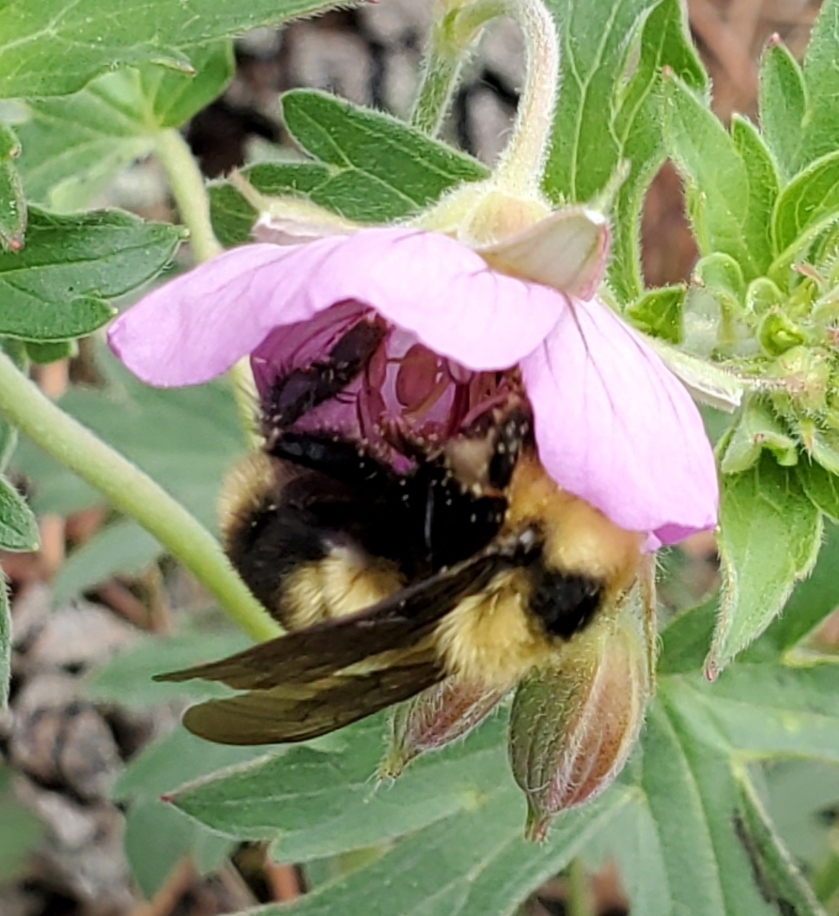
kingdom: Animalia
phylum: Arthropoda
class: Insecta
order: Hymenoptera
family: Apidae
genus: Bombus
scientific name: Bombus rufocinctus
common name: Red-belted bumble bee
